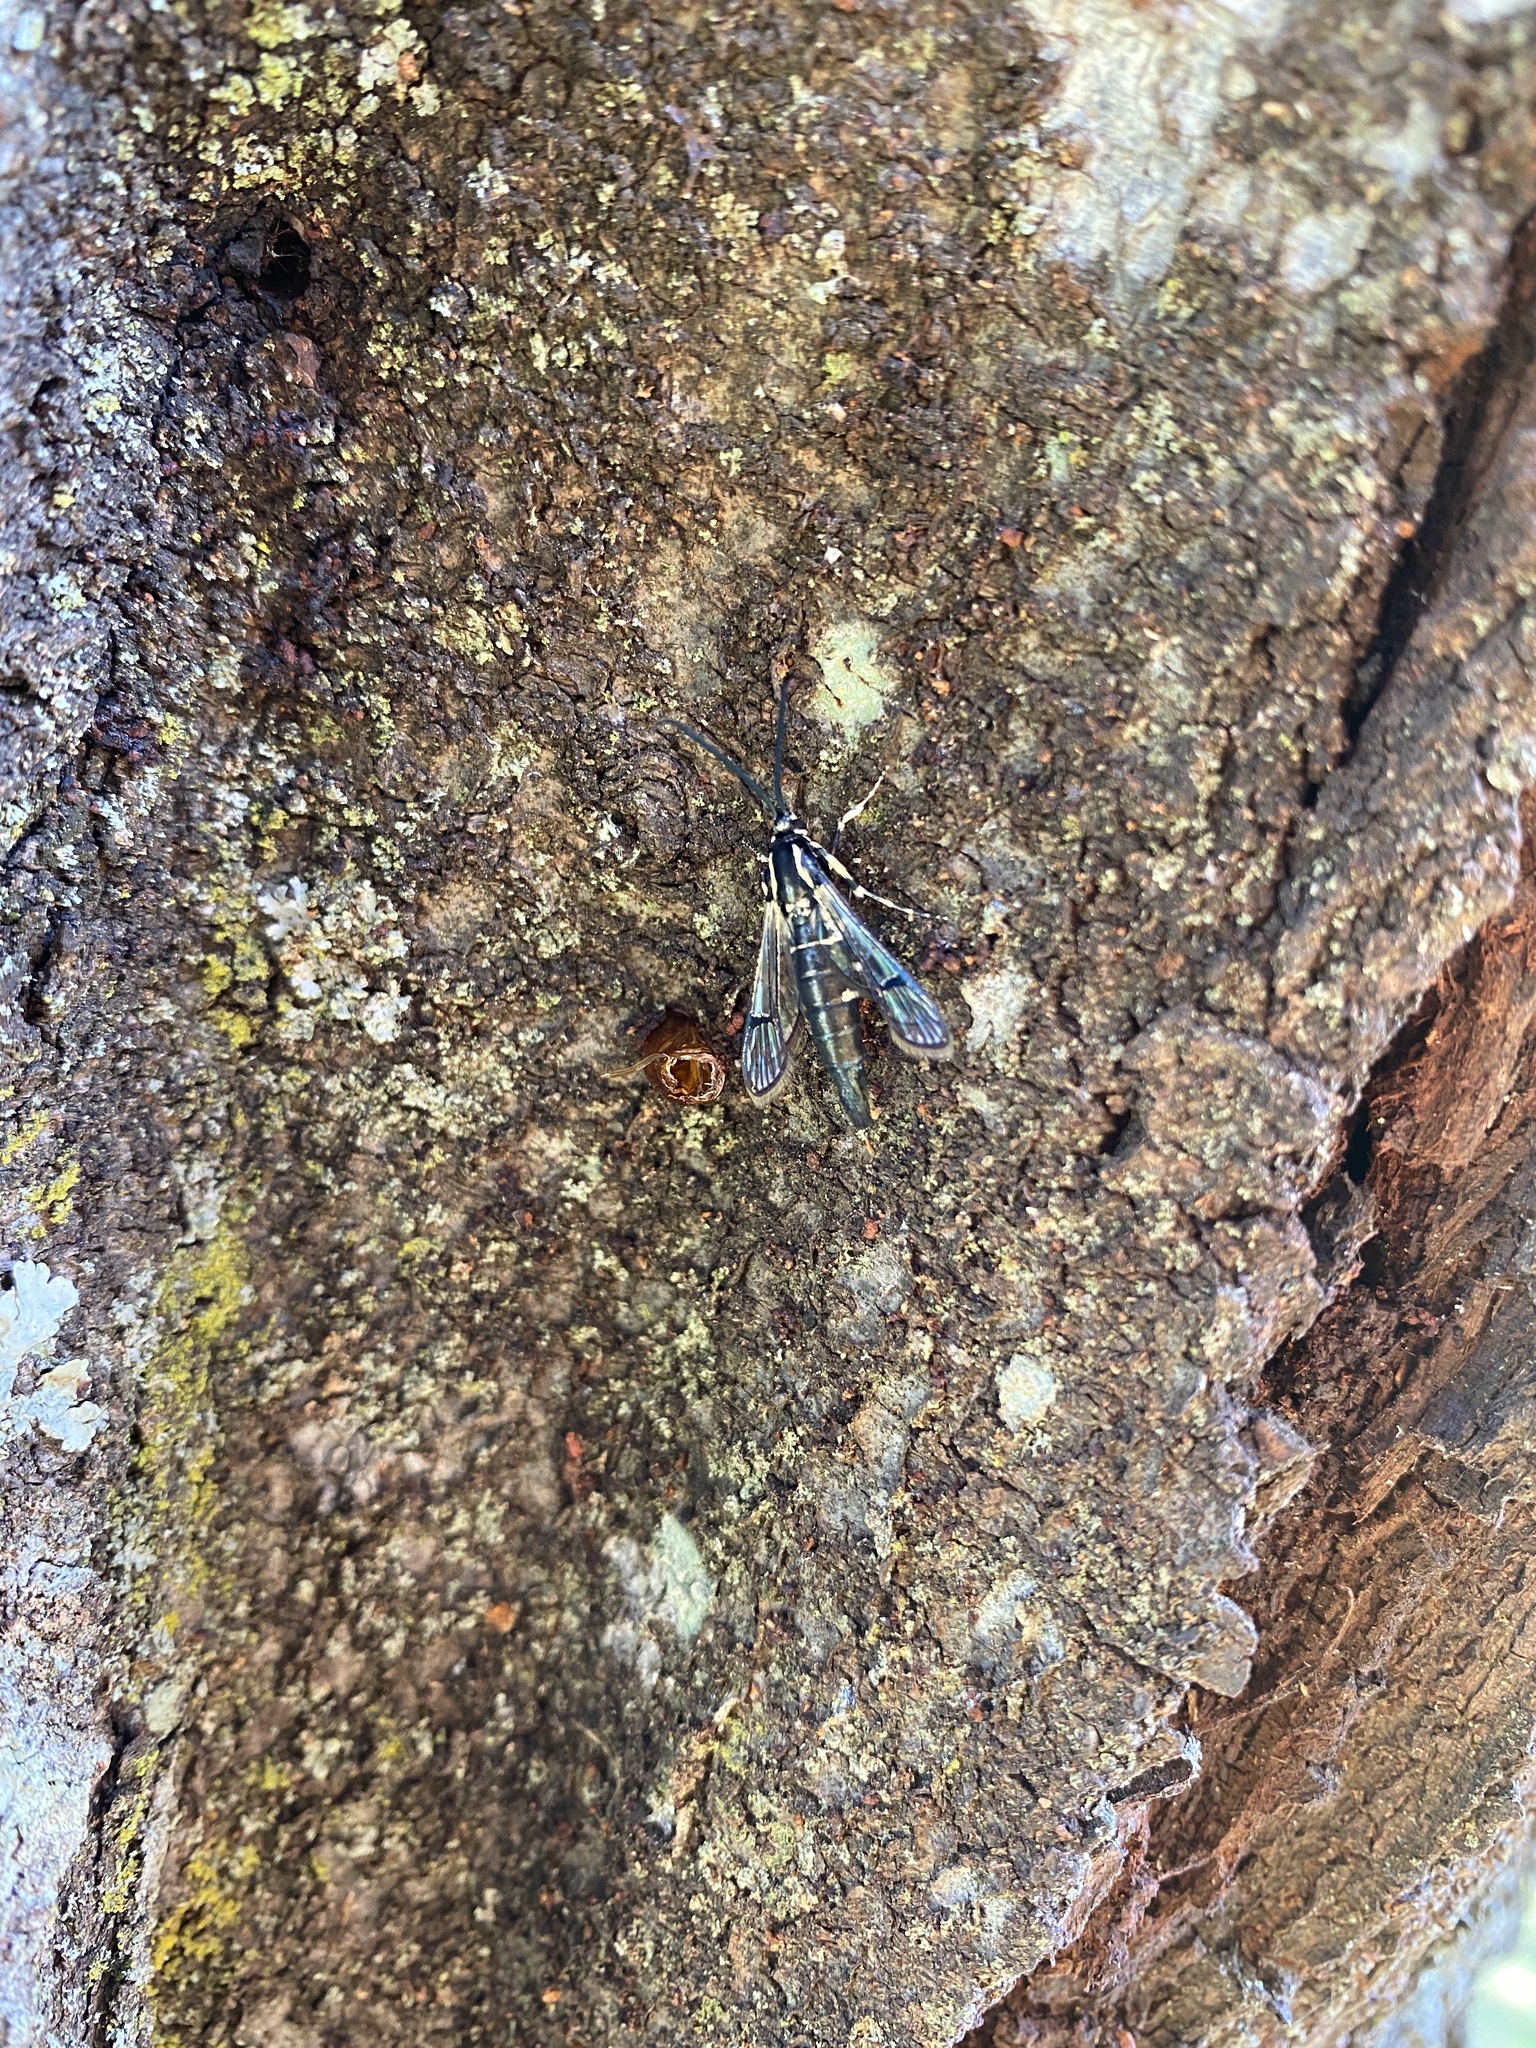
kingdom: Animalia
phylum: Arthropoda
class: Insecta
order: Lepidoptera
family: Sesiidae
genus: Synanthedon
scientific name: Synanthedon exitiosa
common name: Peachtree borer moth
